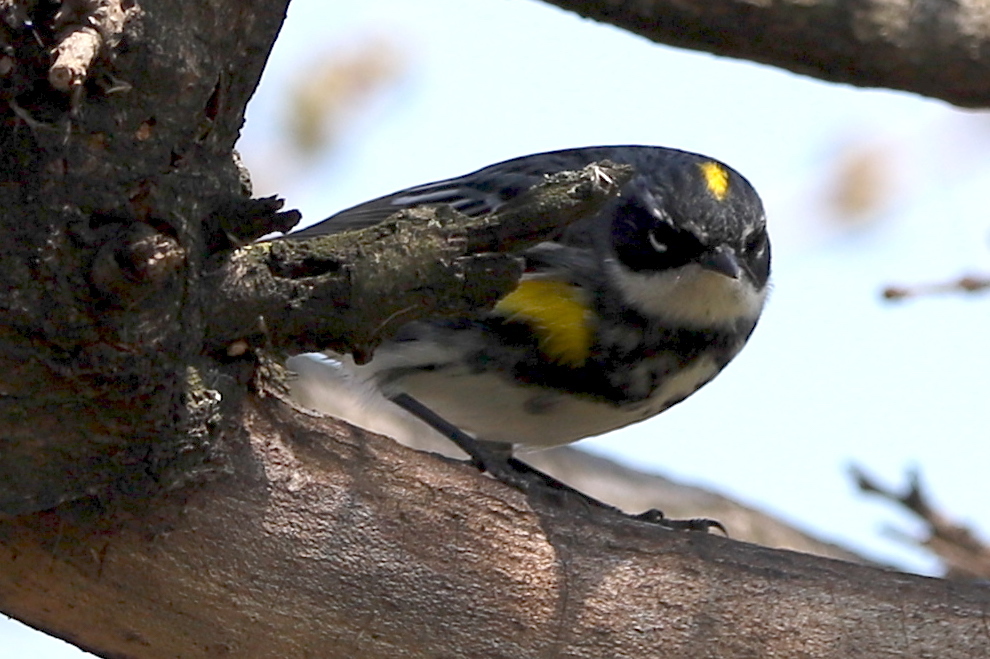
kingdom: Animalia
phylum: Chordata
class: Aves
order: Passeriformes
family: Parulidae
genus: Setophaga
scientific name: Setophaga coronata
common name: Myrtle warbler
